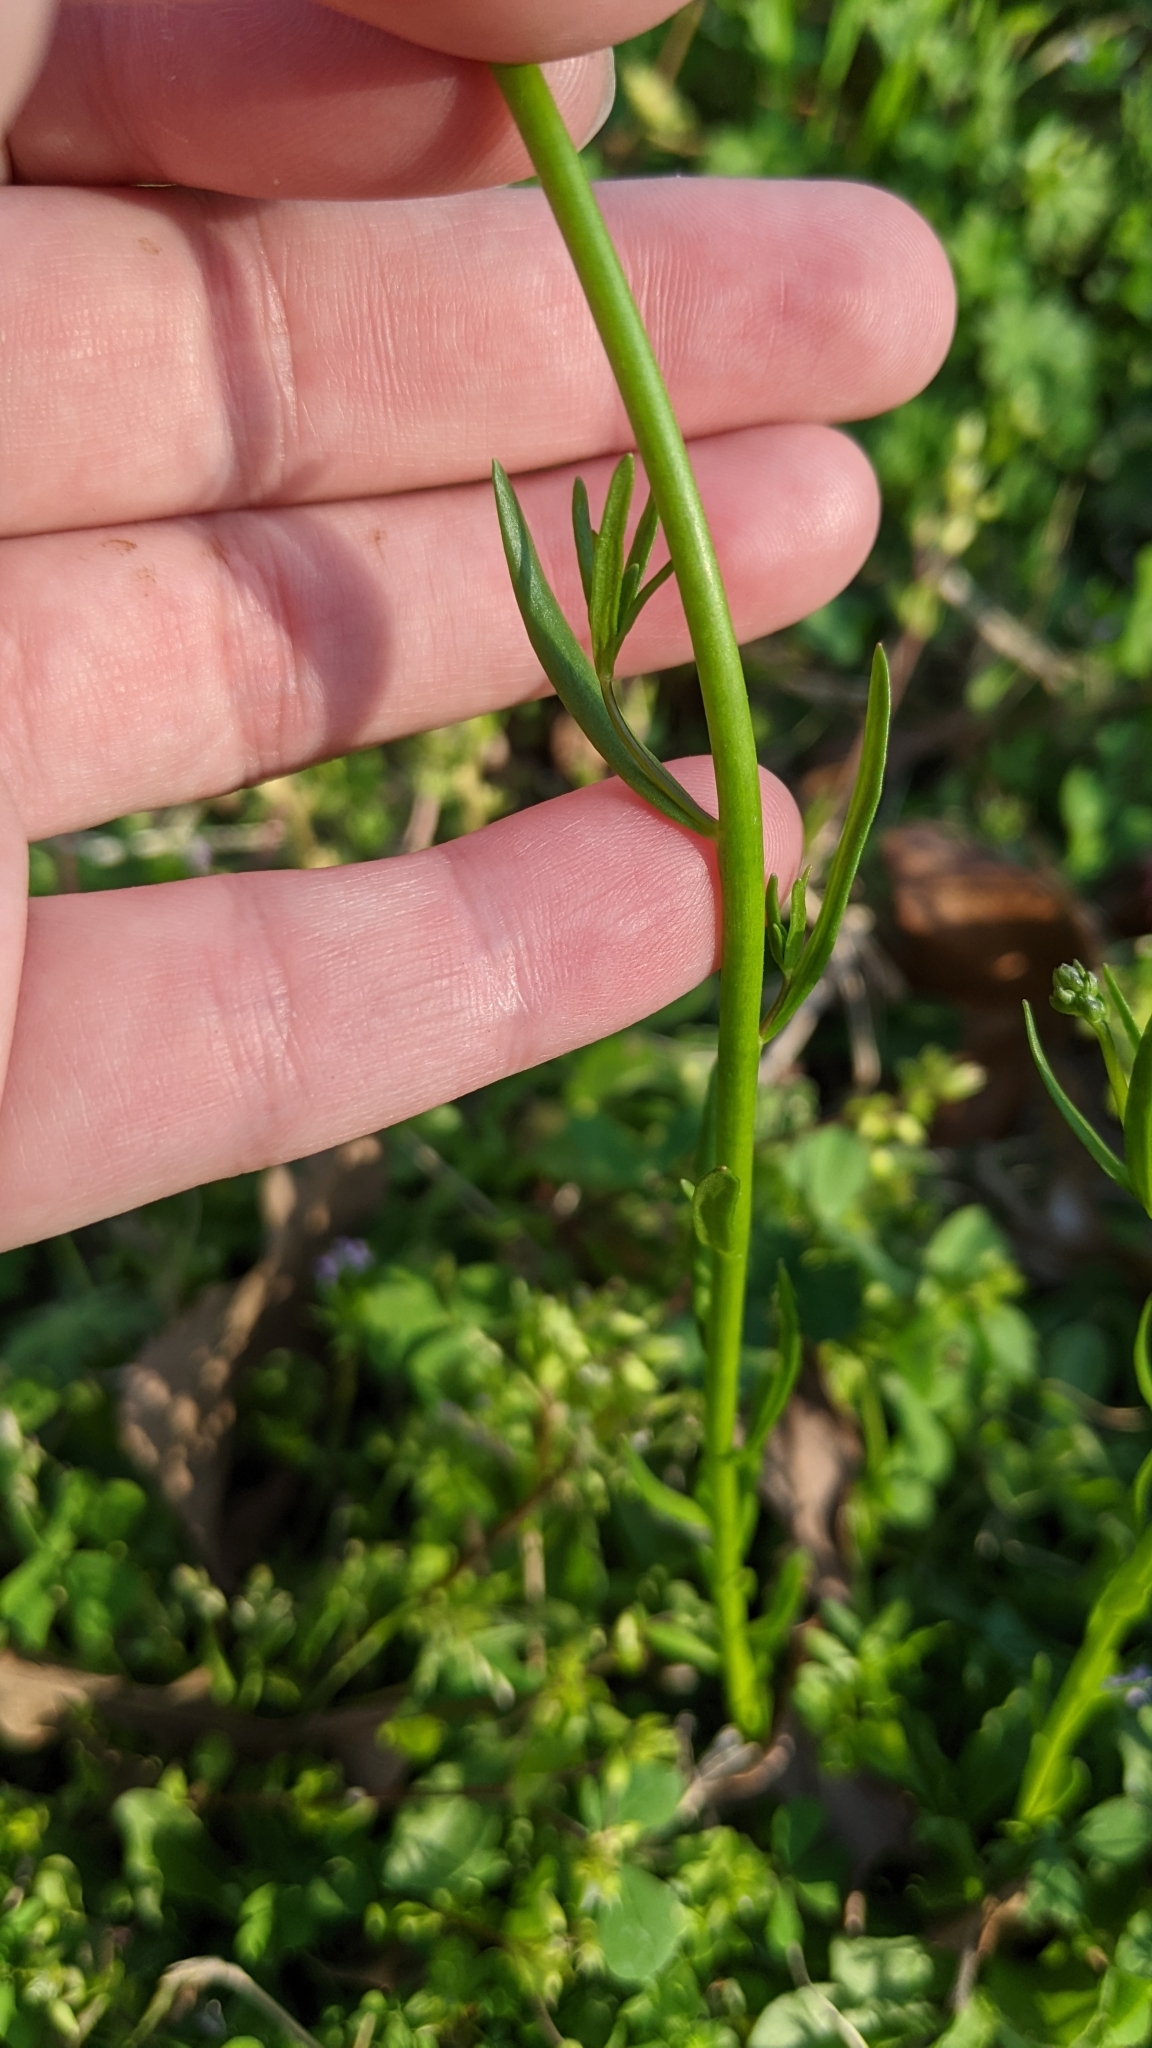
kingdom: Plantae
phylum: Tracheophyta
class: Magnoliopsida
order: Lamiales
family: Plantaginaceae
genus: Nuttallanthus
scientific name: Nuttallanthus texanus
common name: Texas toadflax
